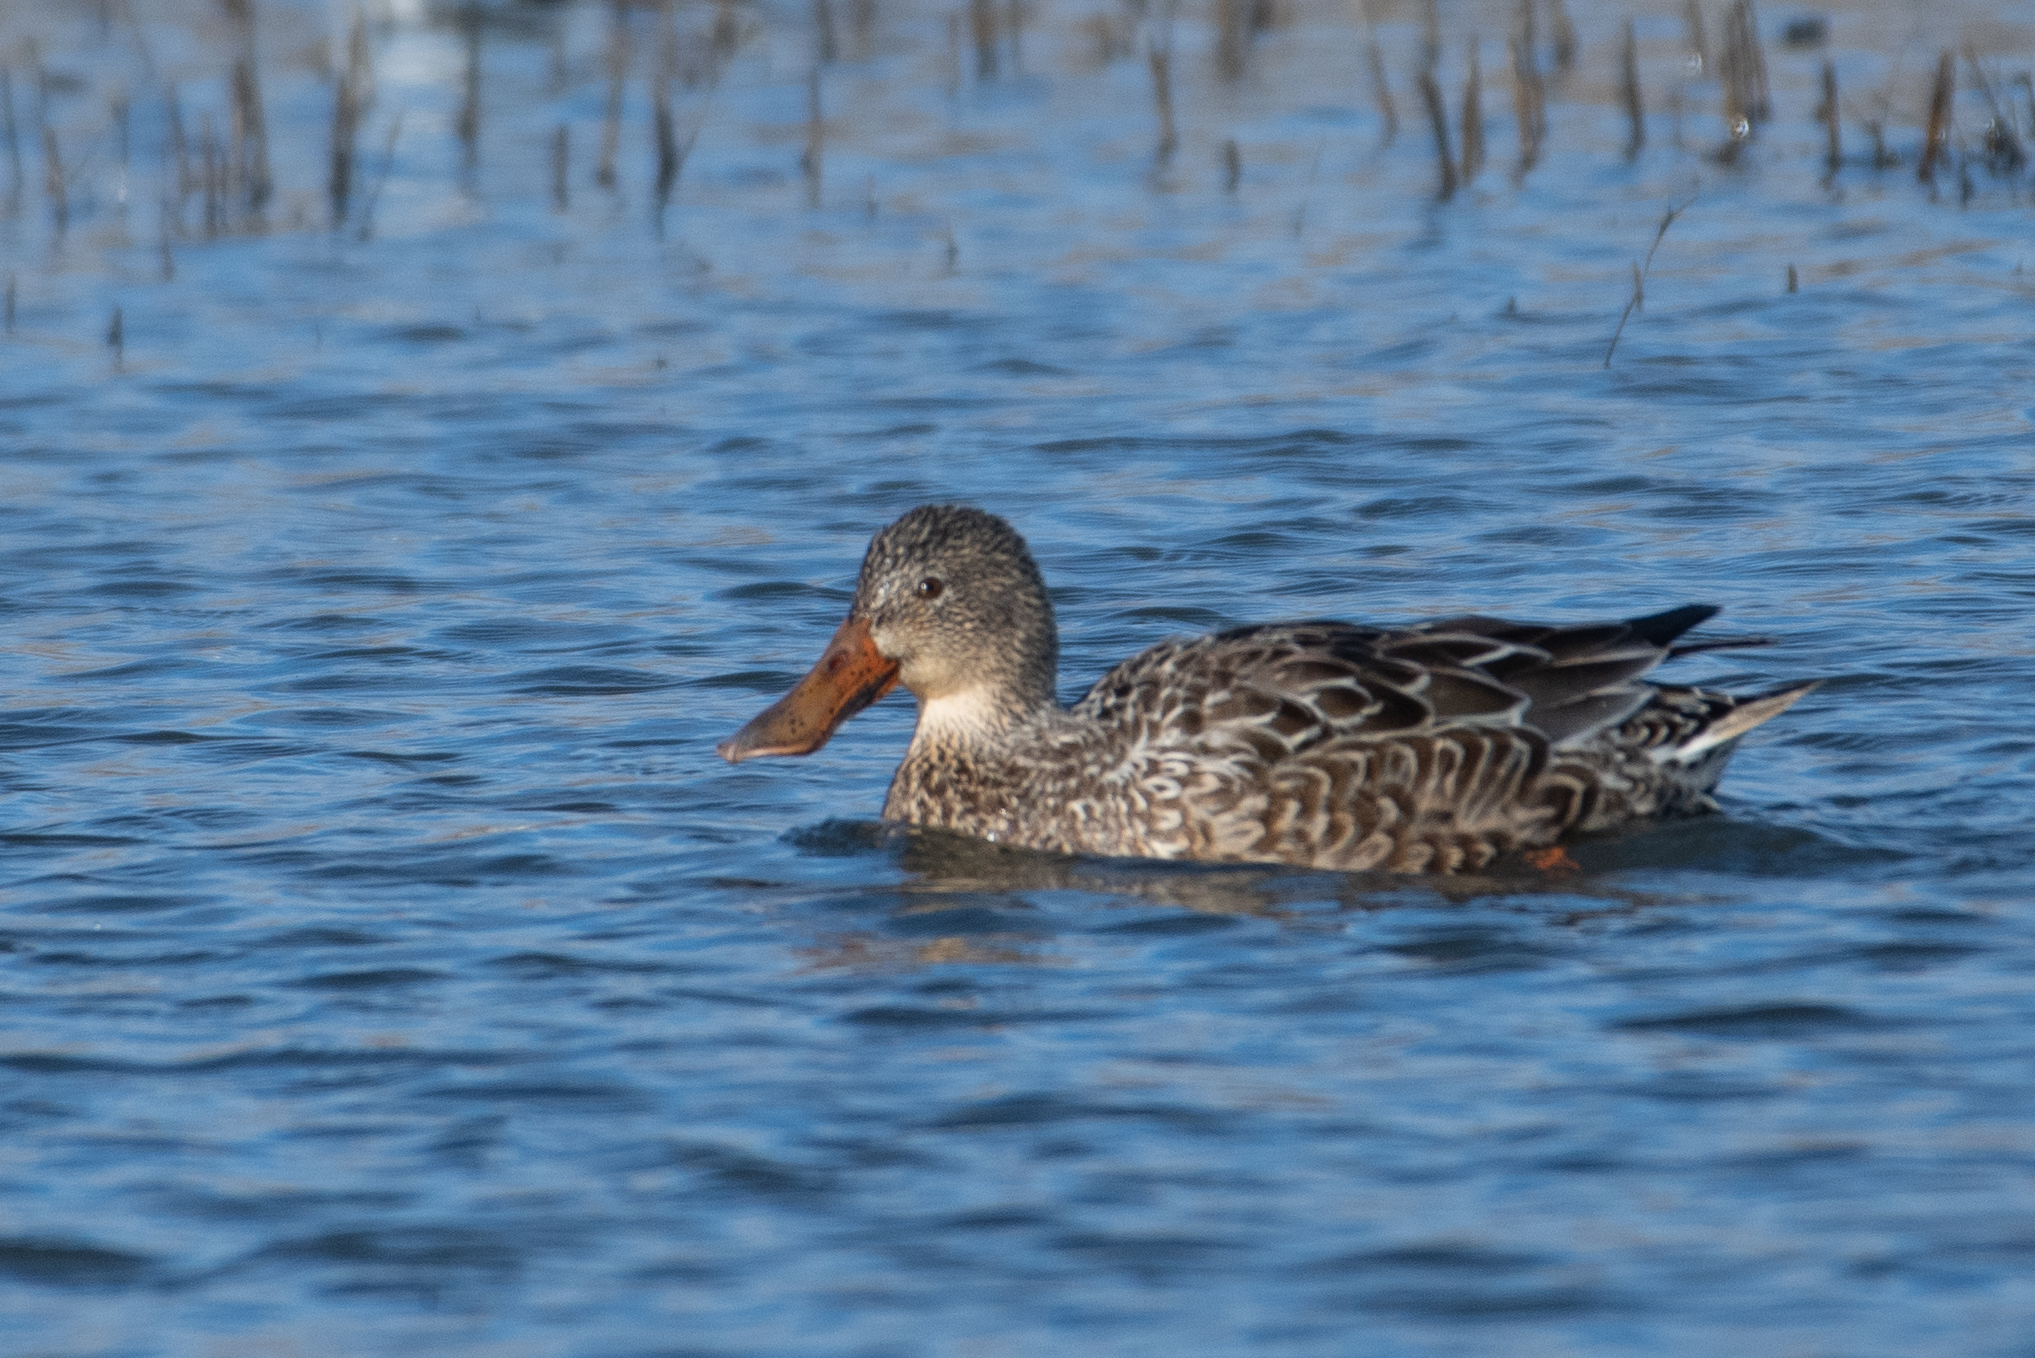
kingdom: Animalia
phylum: Chordata
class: Aves
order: Anseriformes
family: Anatidae
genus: Spatula
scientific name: Spatula clypeata
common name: Northern shoveler
